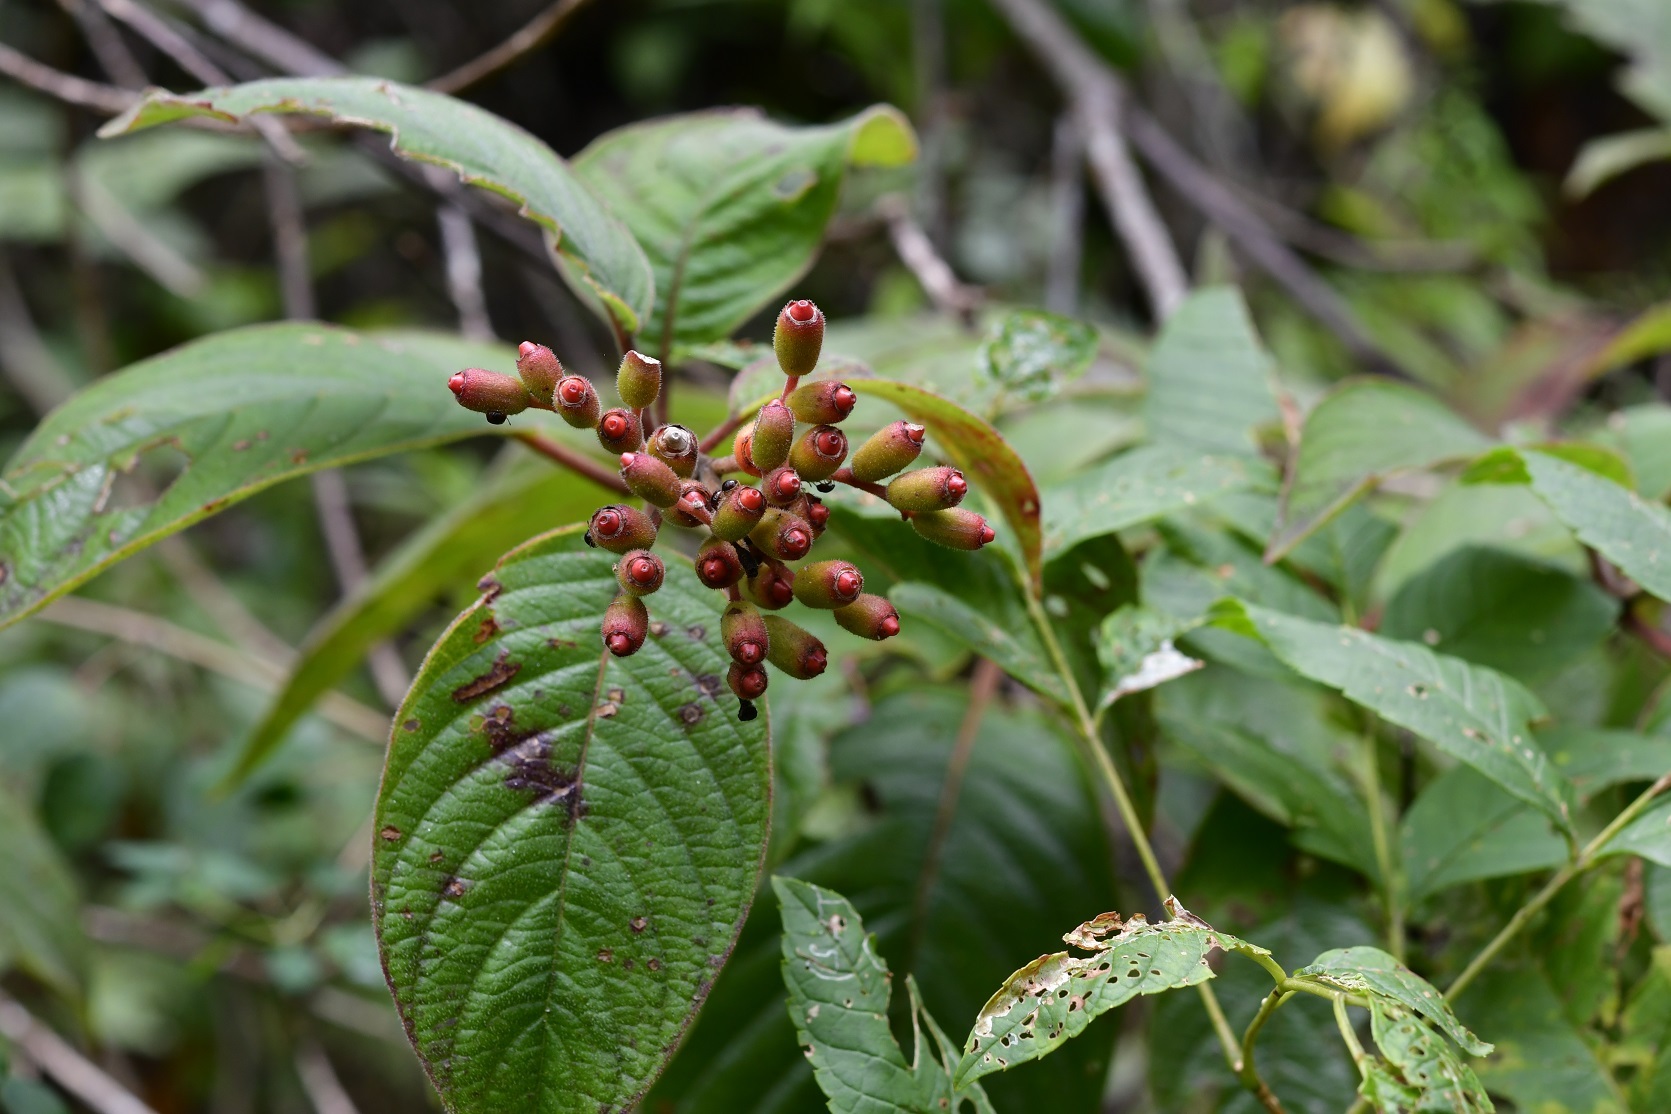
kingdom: Plantae
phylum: Tracheophyta
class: Magnoliopsida
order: Gentianales
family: Rubiaceae
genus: Hamelia
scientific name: Hamelia patens
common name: Redhead
